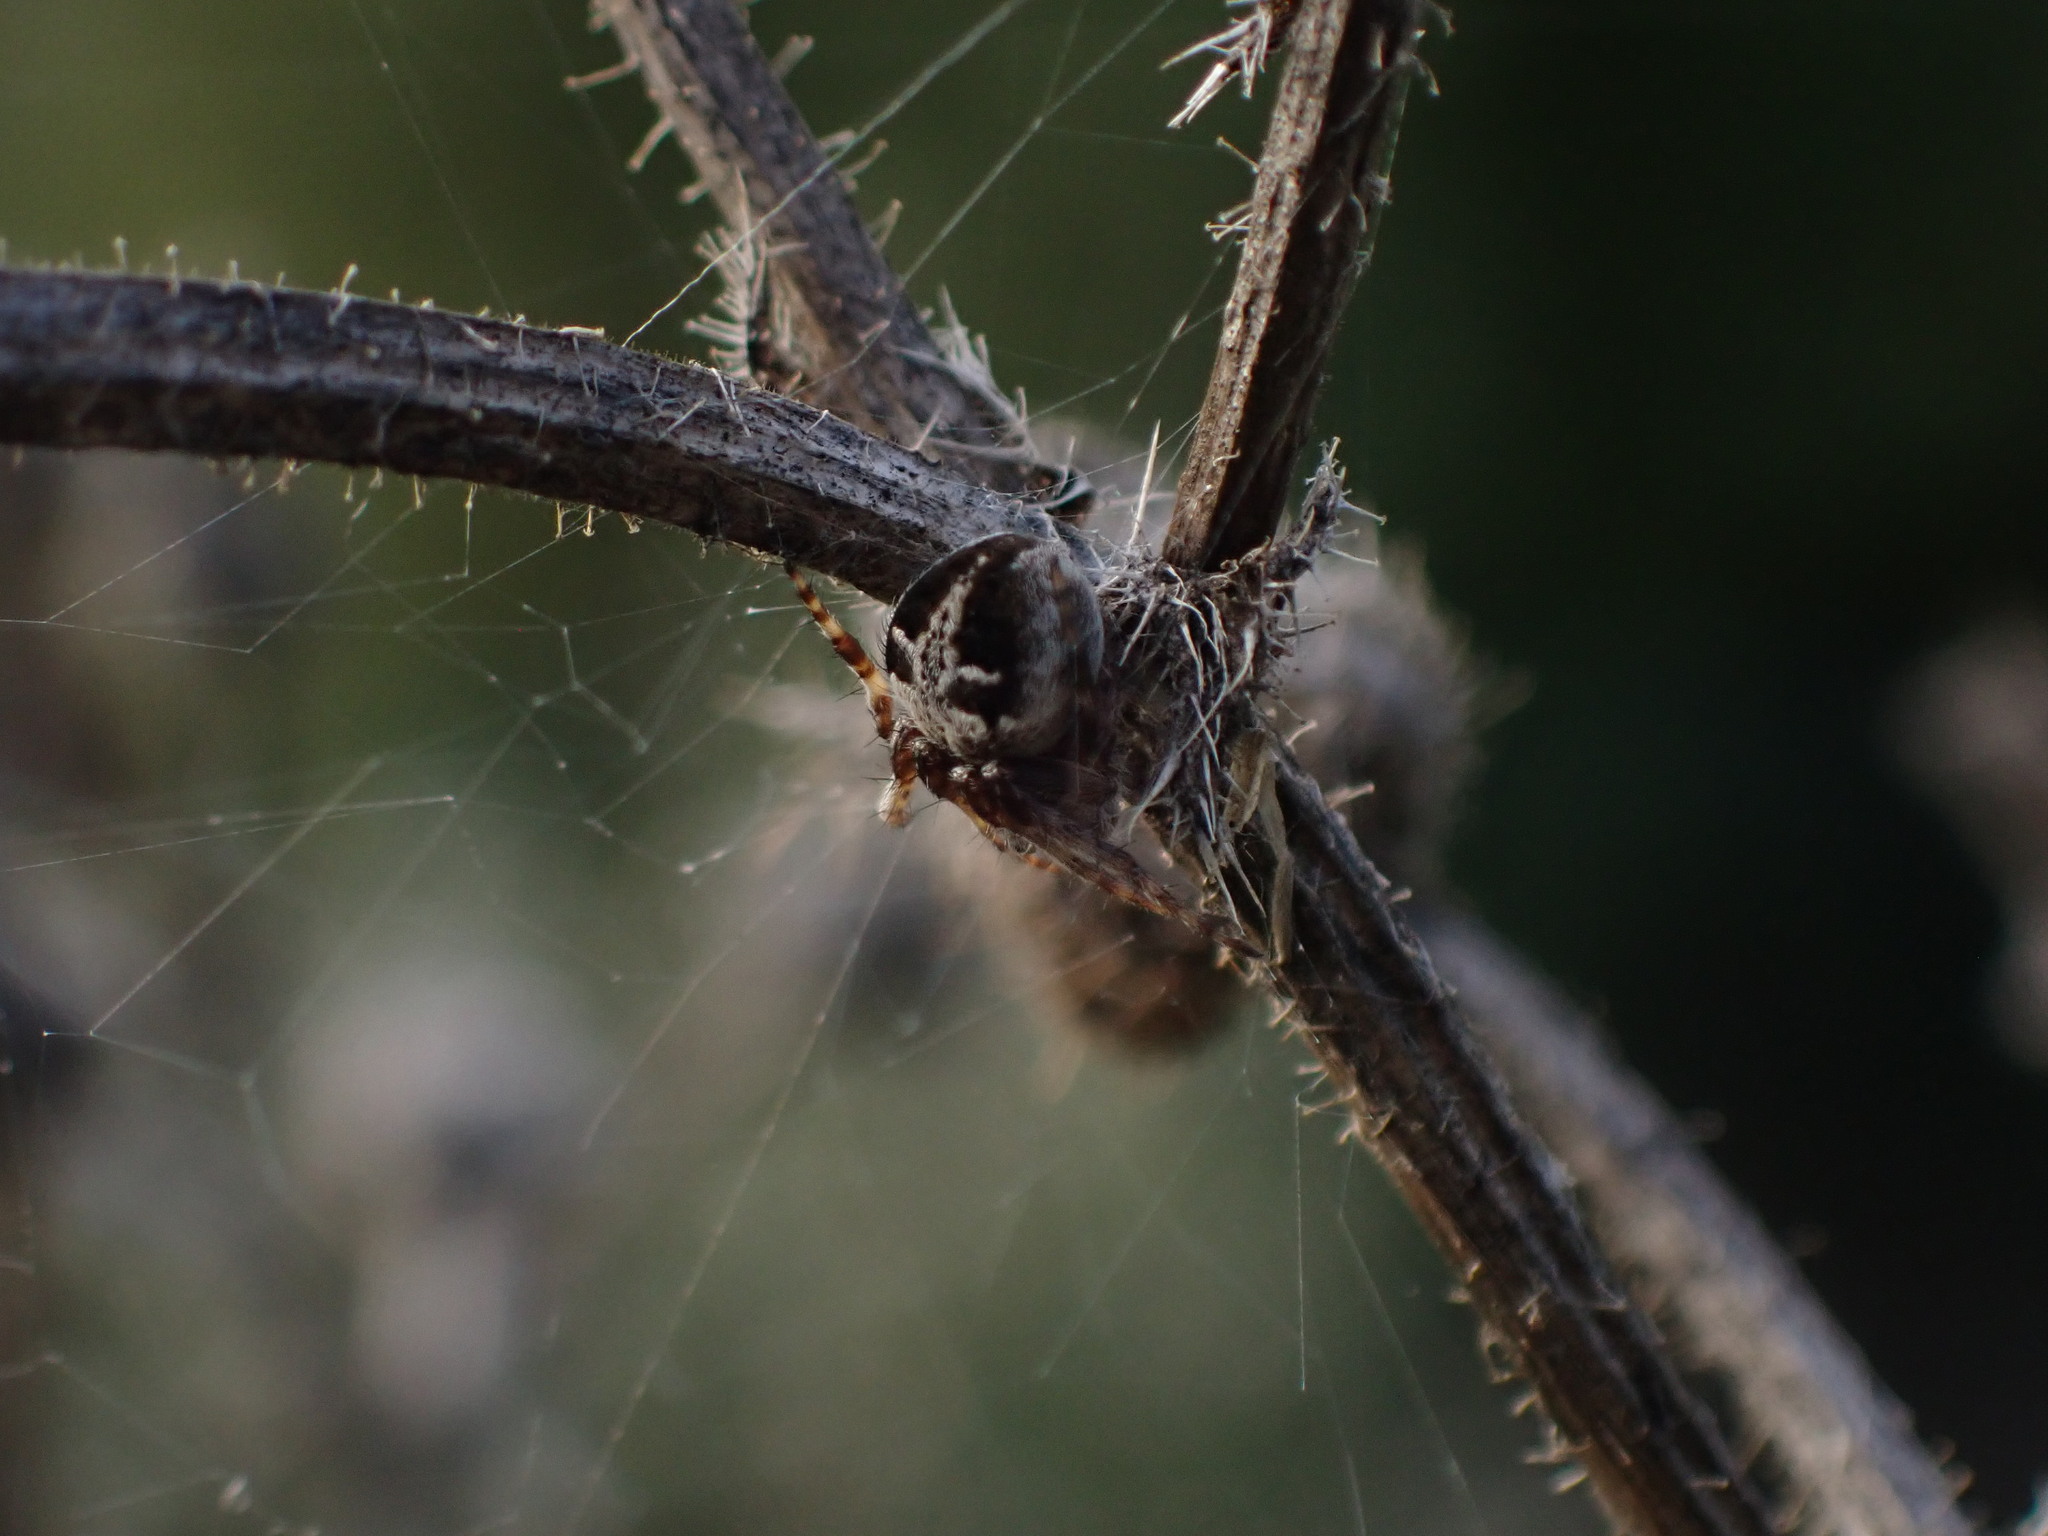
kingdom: Animalia
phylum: Arthropoda
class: Arachnida
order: Araneae
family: Araneidae
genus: Agalenatea
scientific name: Agalenatea redii
